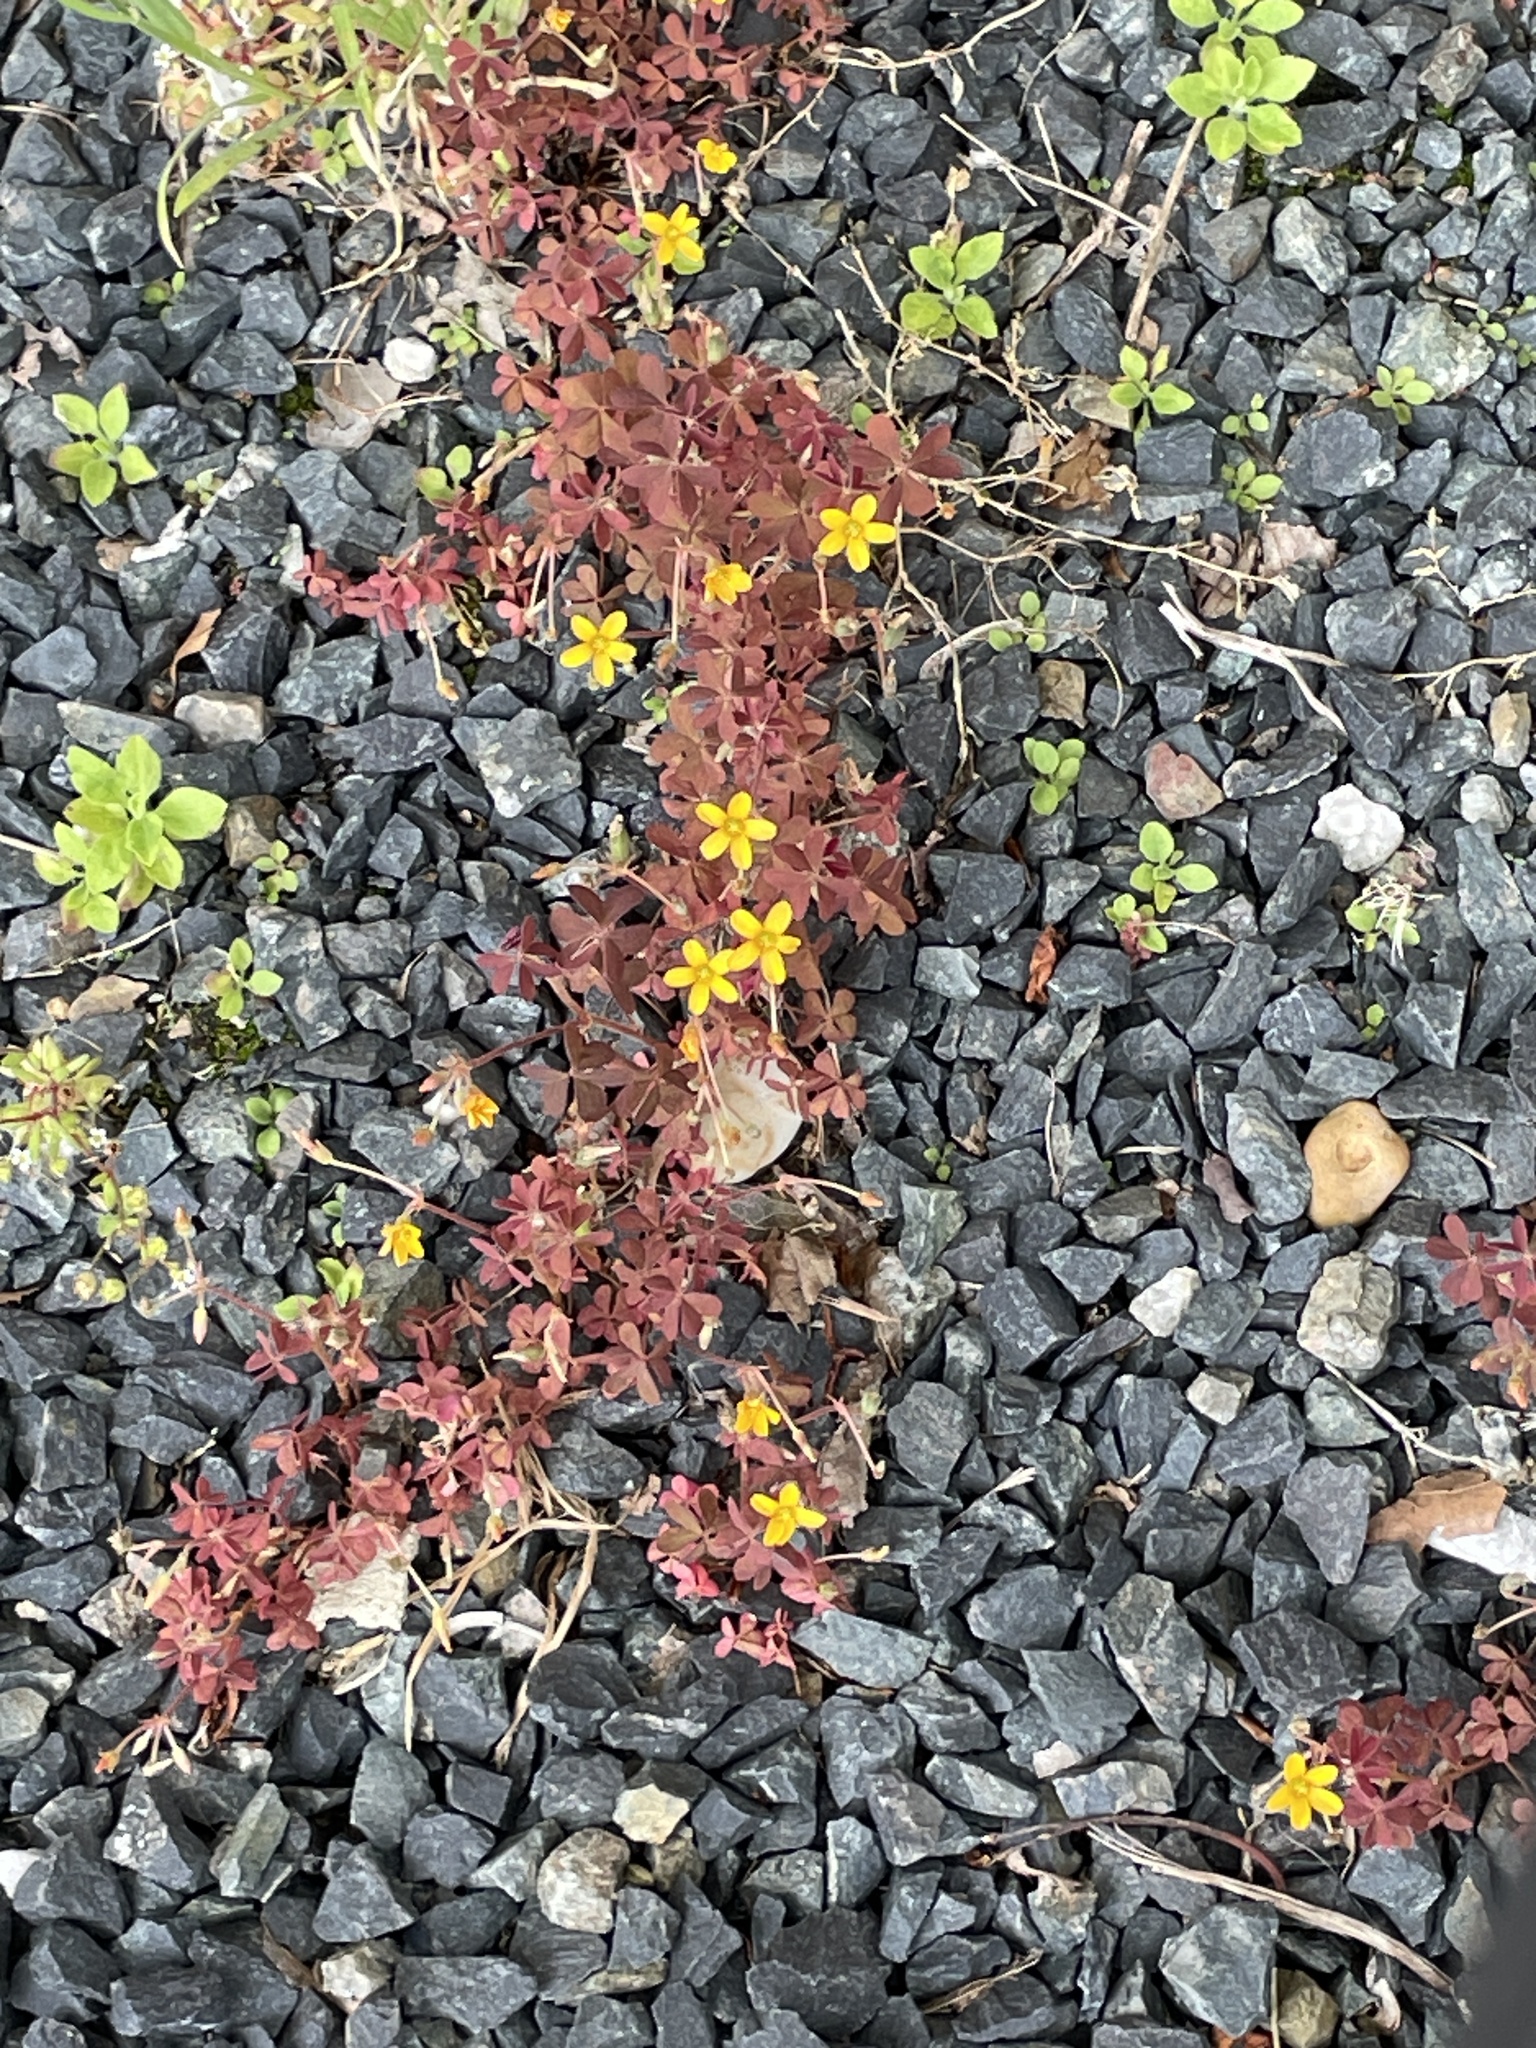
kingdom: Plantae
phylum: Tracheophyta
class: Magnoliopsida
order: Oxalidales
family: Oxalidaceae
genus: Oxalis
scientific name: Oxalis corniculata
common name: Procumbent yellow-sorrel
